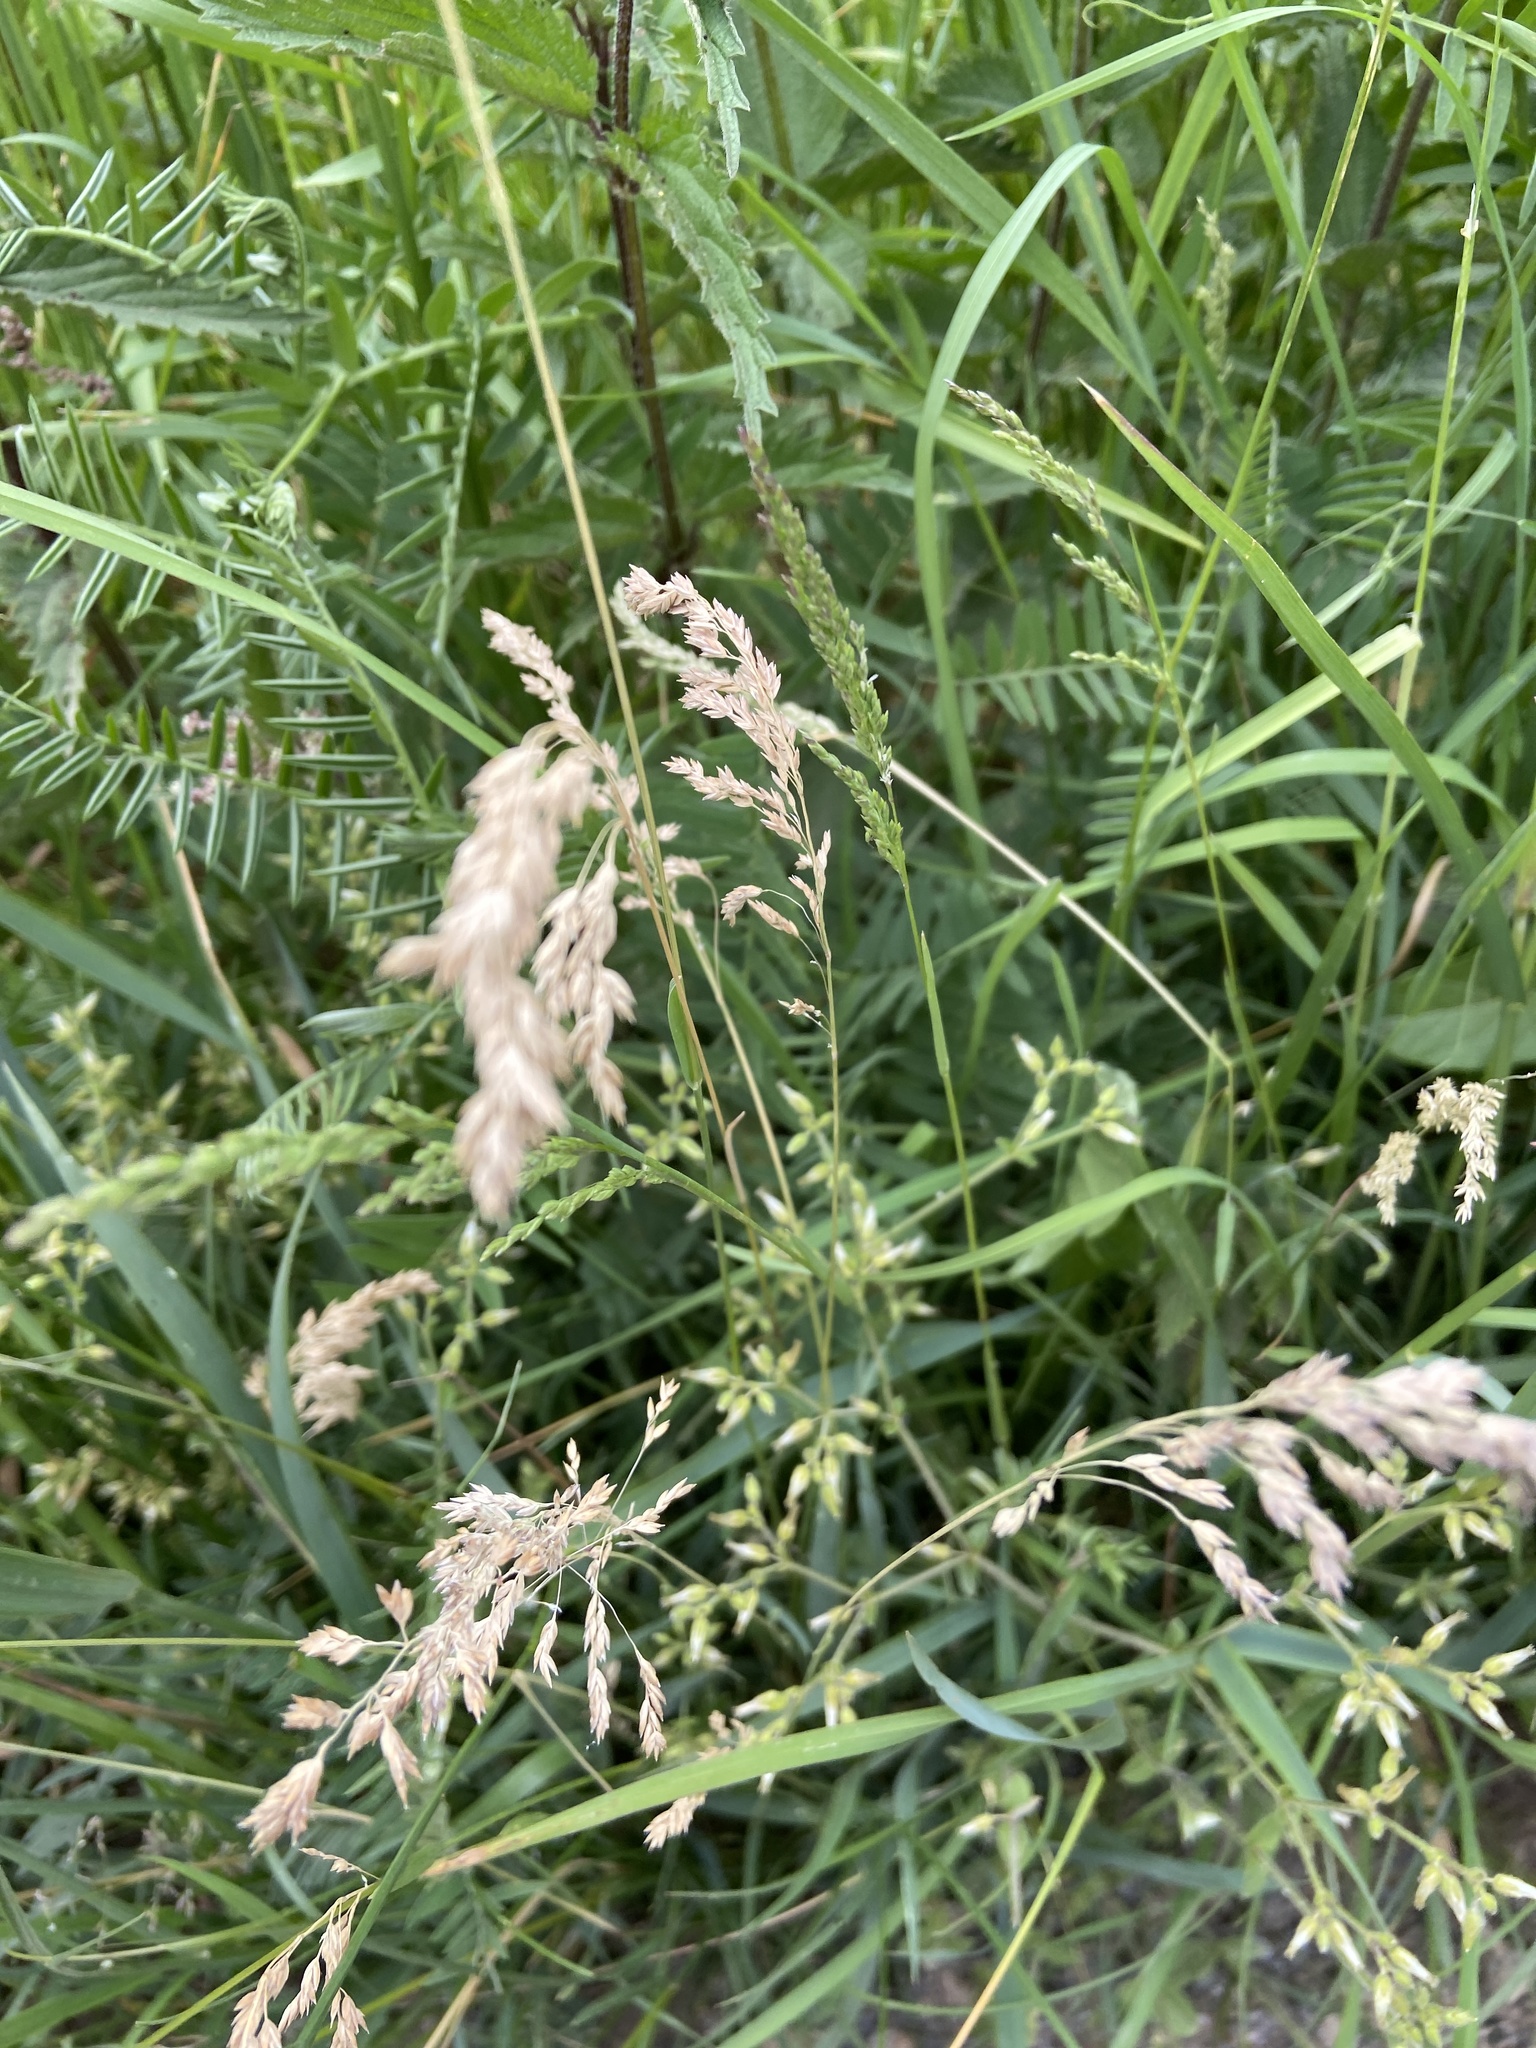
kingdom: Plantae
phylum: Tracheophyta
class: Liliopsida
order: Poales
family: Poaceae
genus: Poa
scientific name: Poa pratensis
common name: Kentucky bluegrass
